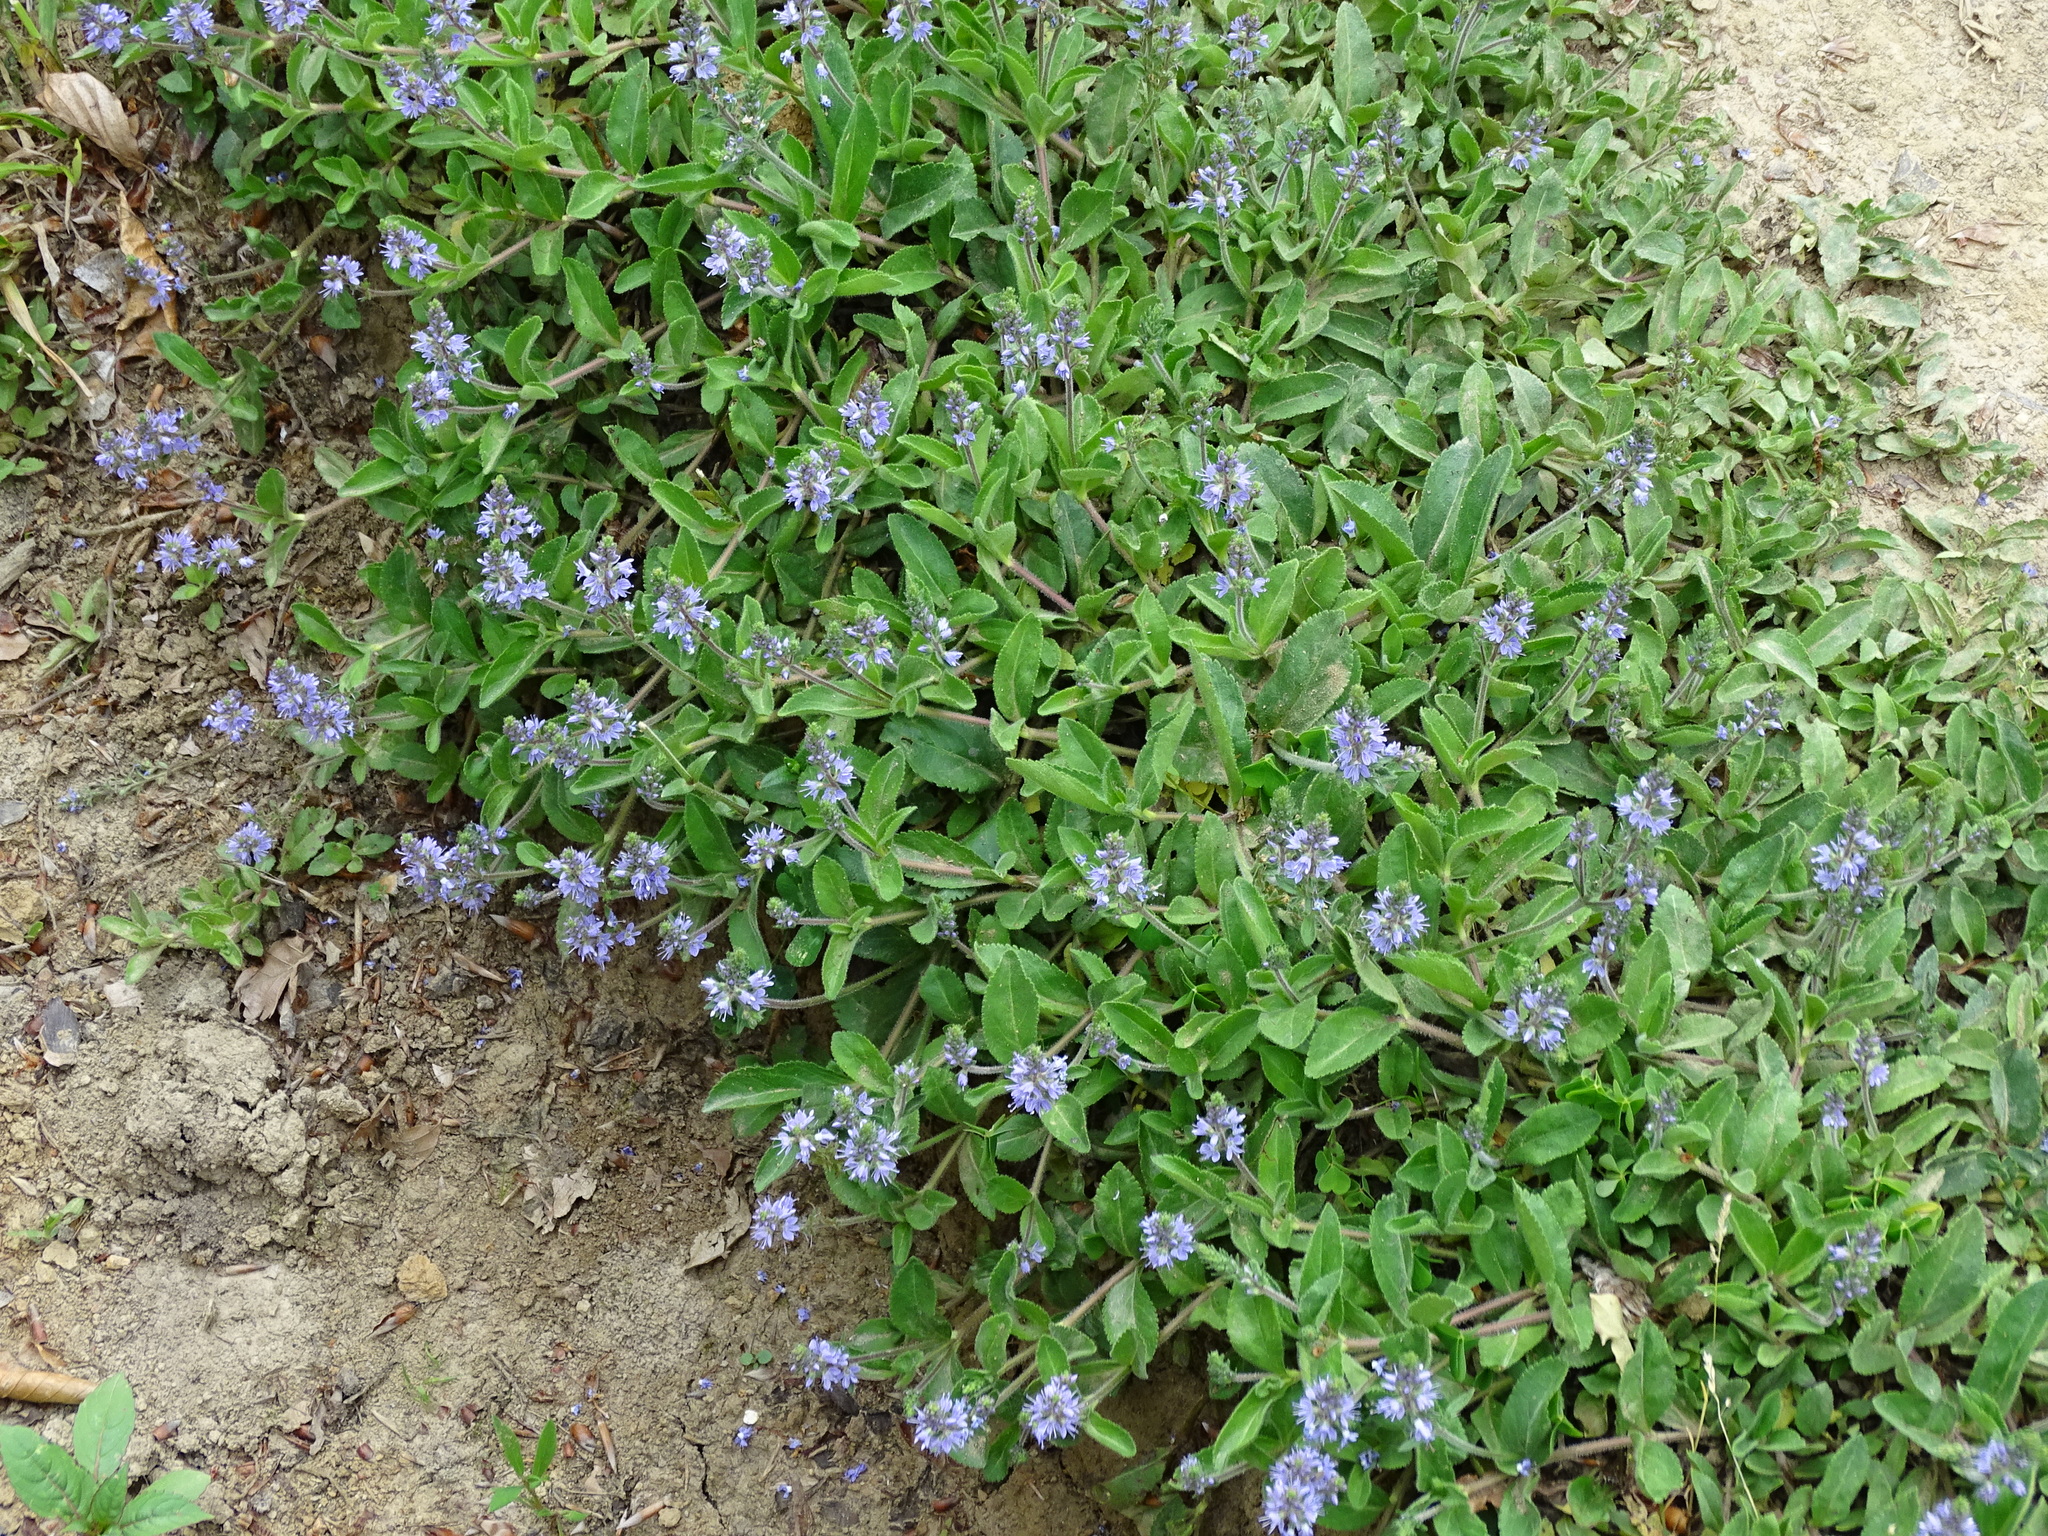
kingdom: Plantae
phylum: Tracheophyta
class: Magnoliopsida
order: Lamiales
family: Plantaginaceae
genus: Veronica
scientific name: Veronica officinalis
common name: Common speedwell
